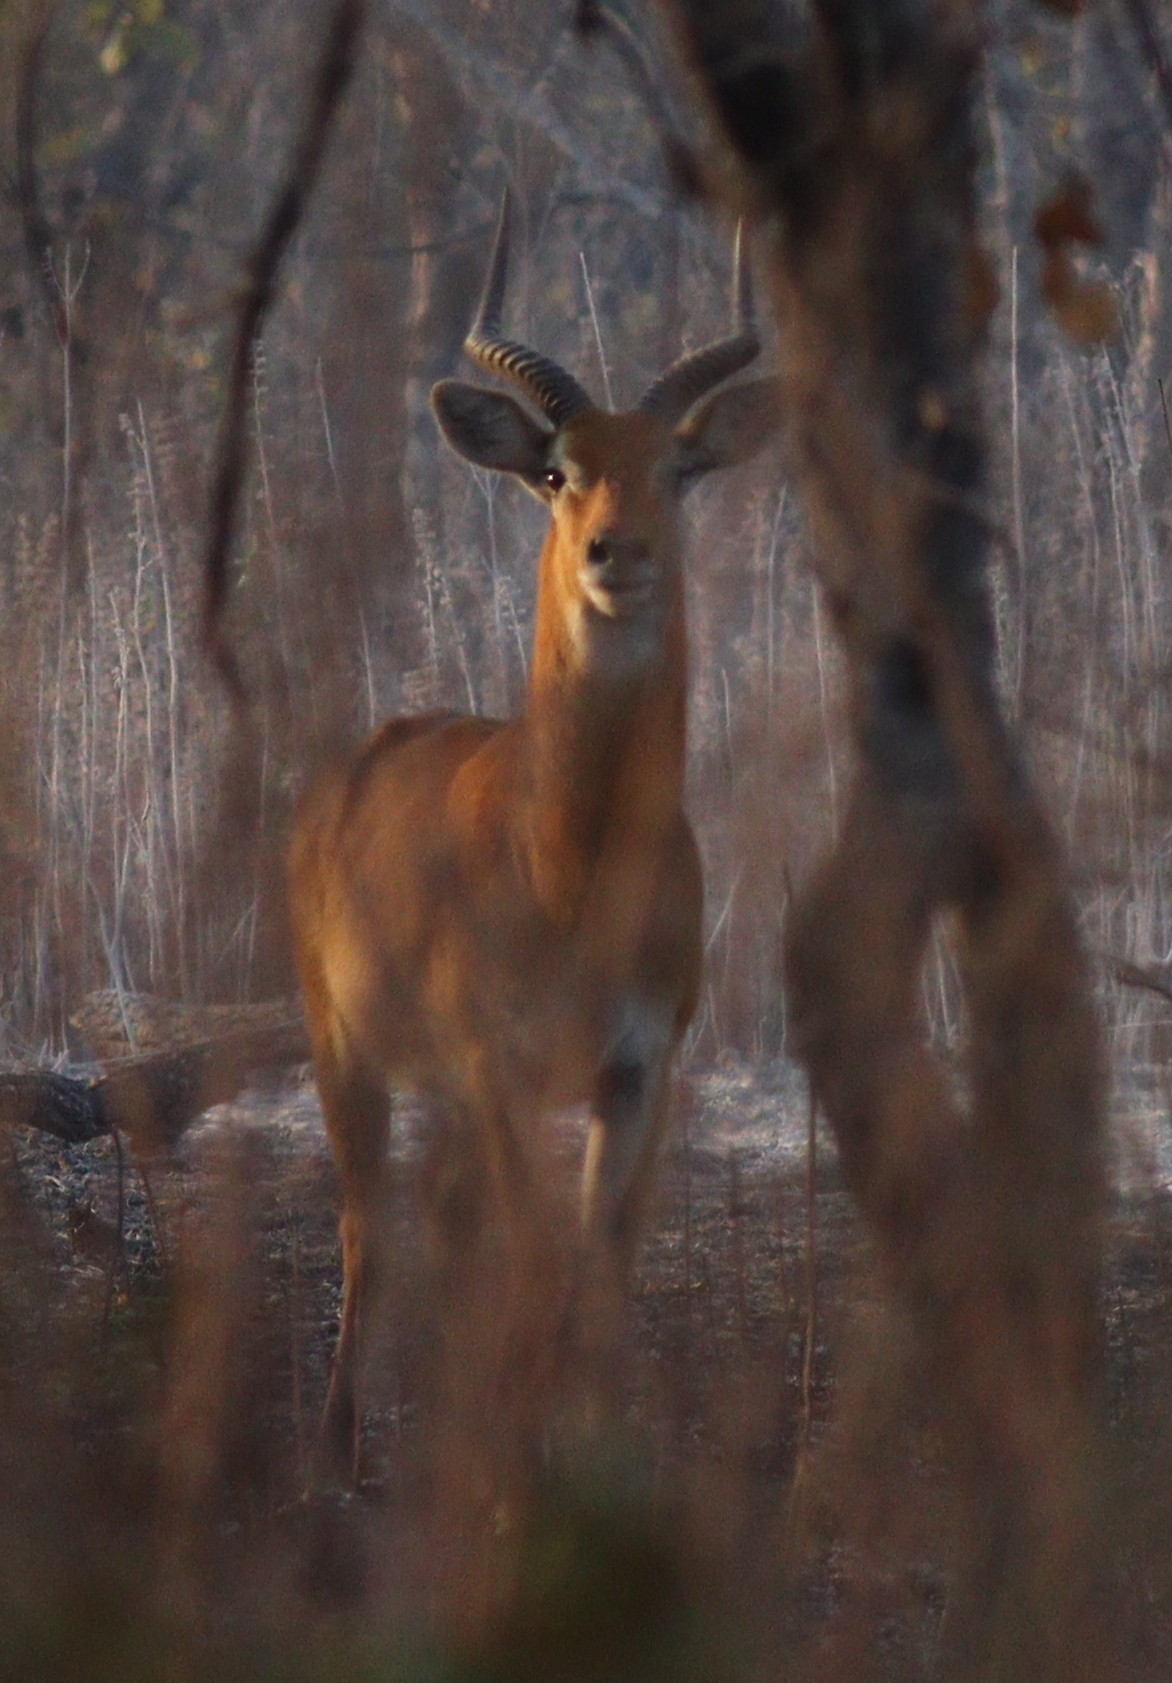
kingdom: Animalia
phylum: Chordata
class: Mammalia
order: Artiodactyla
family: Bovidae
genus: Kobus
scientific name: Kobus kob
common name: Kob
